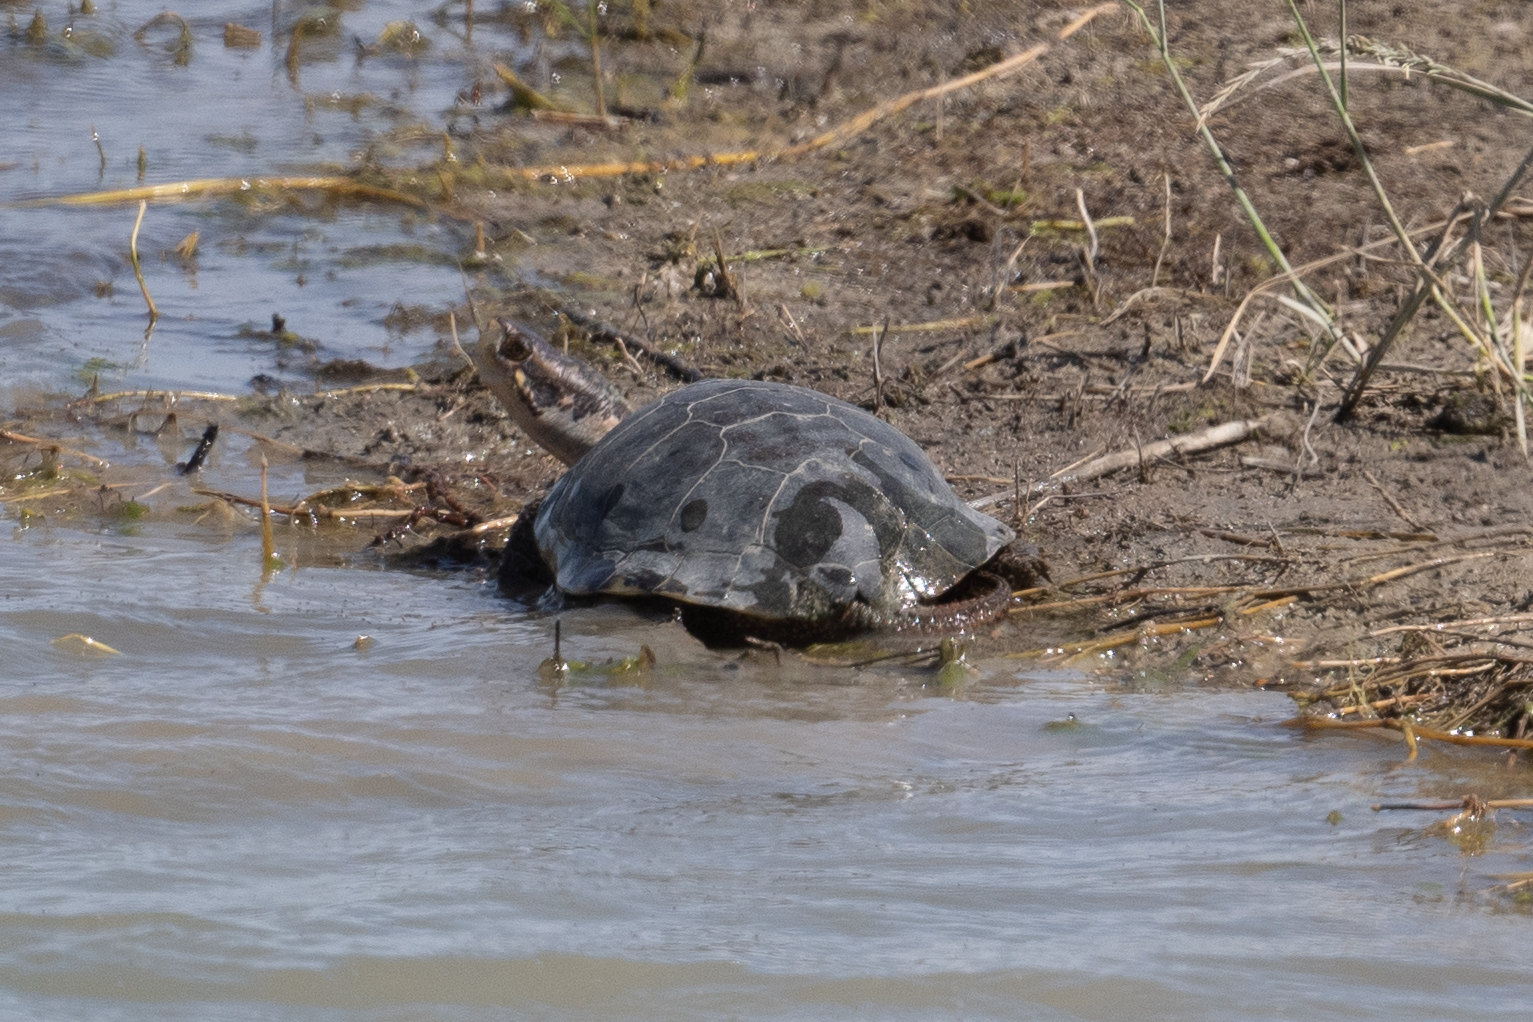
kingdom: Animalia
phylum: Chordata
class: Testudines
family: Emydidae
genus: Actinemys
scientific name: Actinemys marmorata
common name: Western pond turtle
